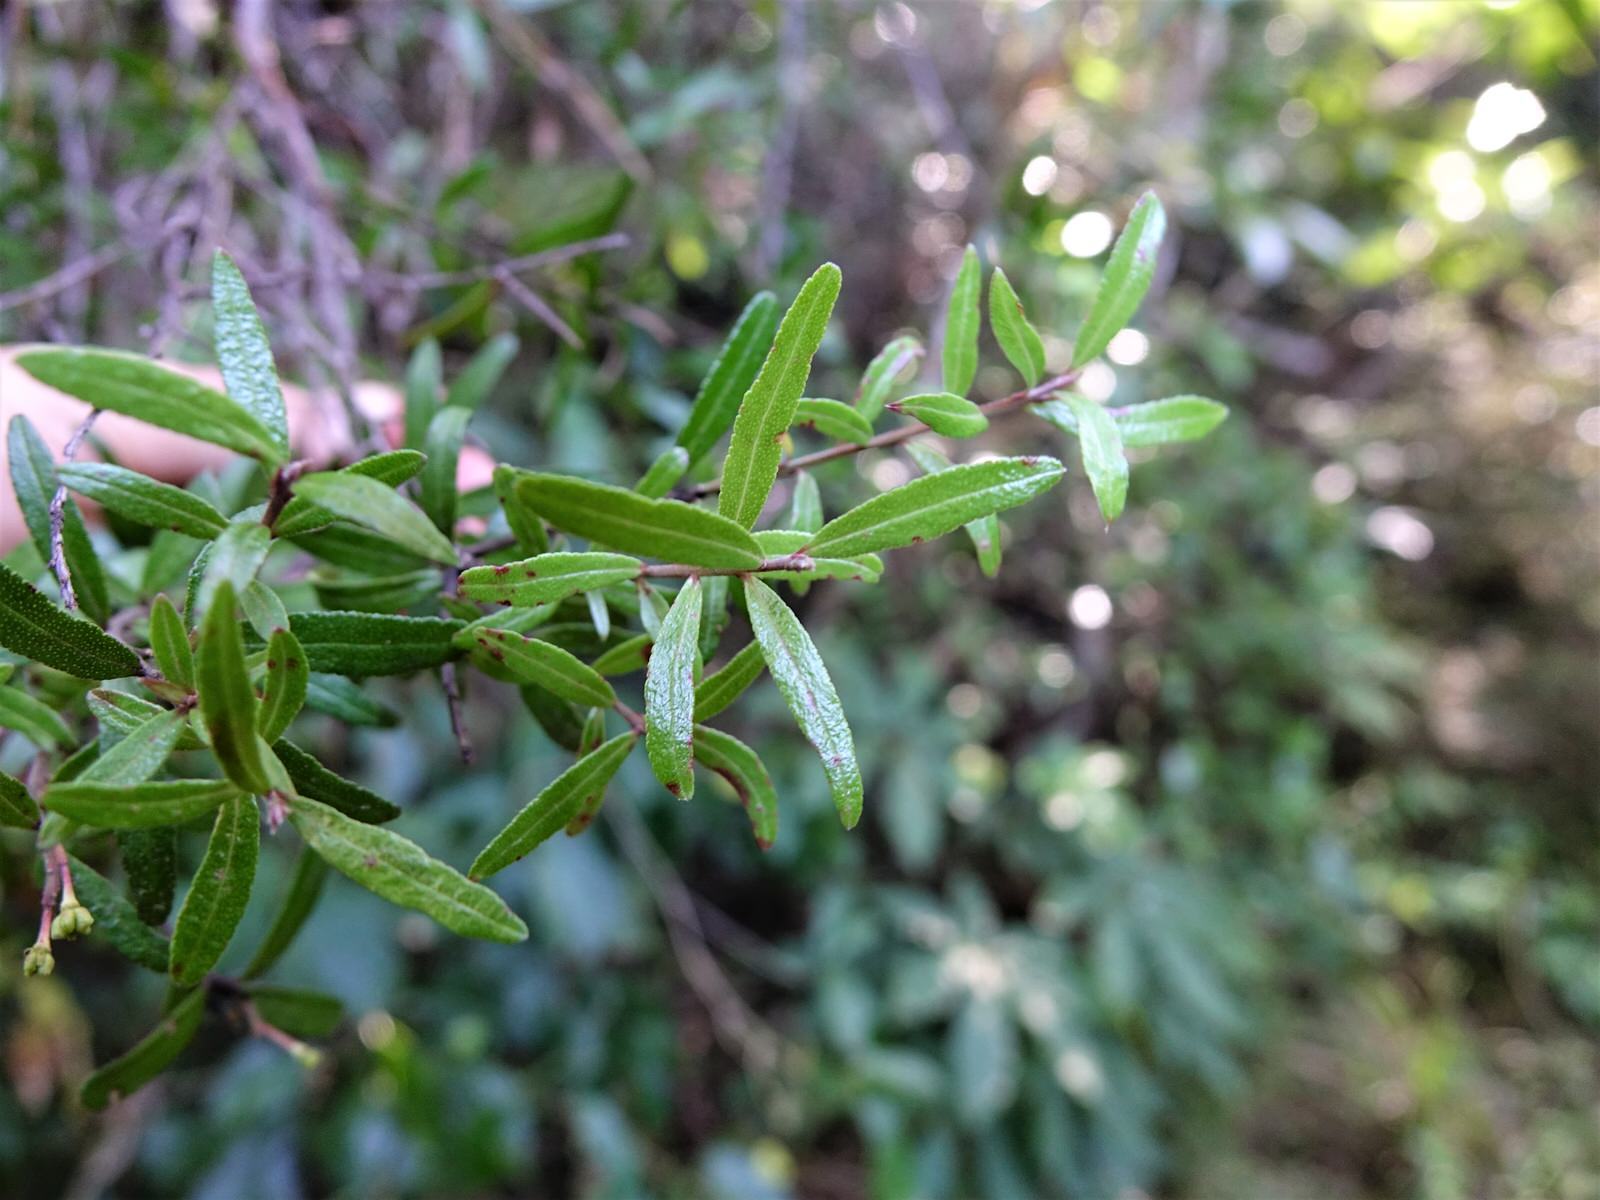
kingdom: Plantae
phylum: Tracheophyta
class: Magnoliopsida
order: Sapindales
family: Rutaceae
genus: Leionema
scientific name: Leionema nudum
